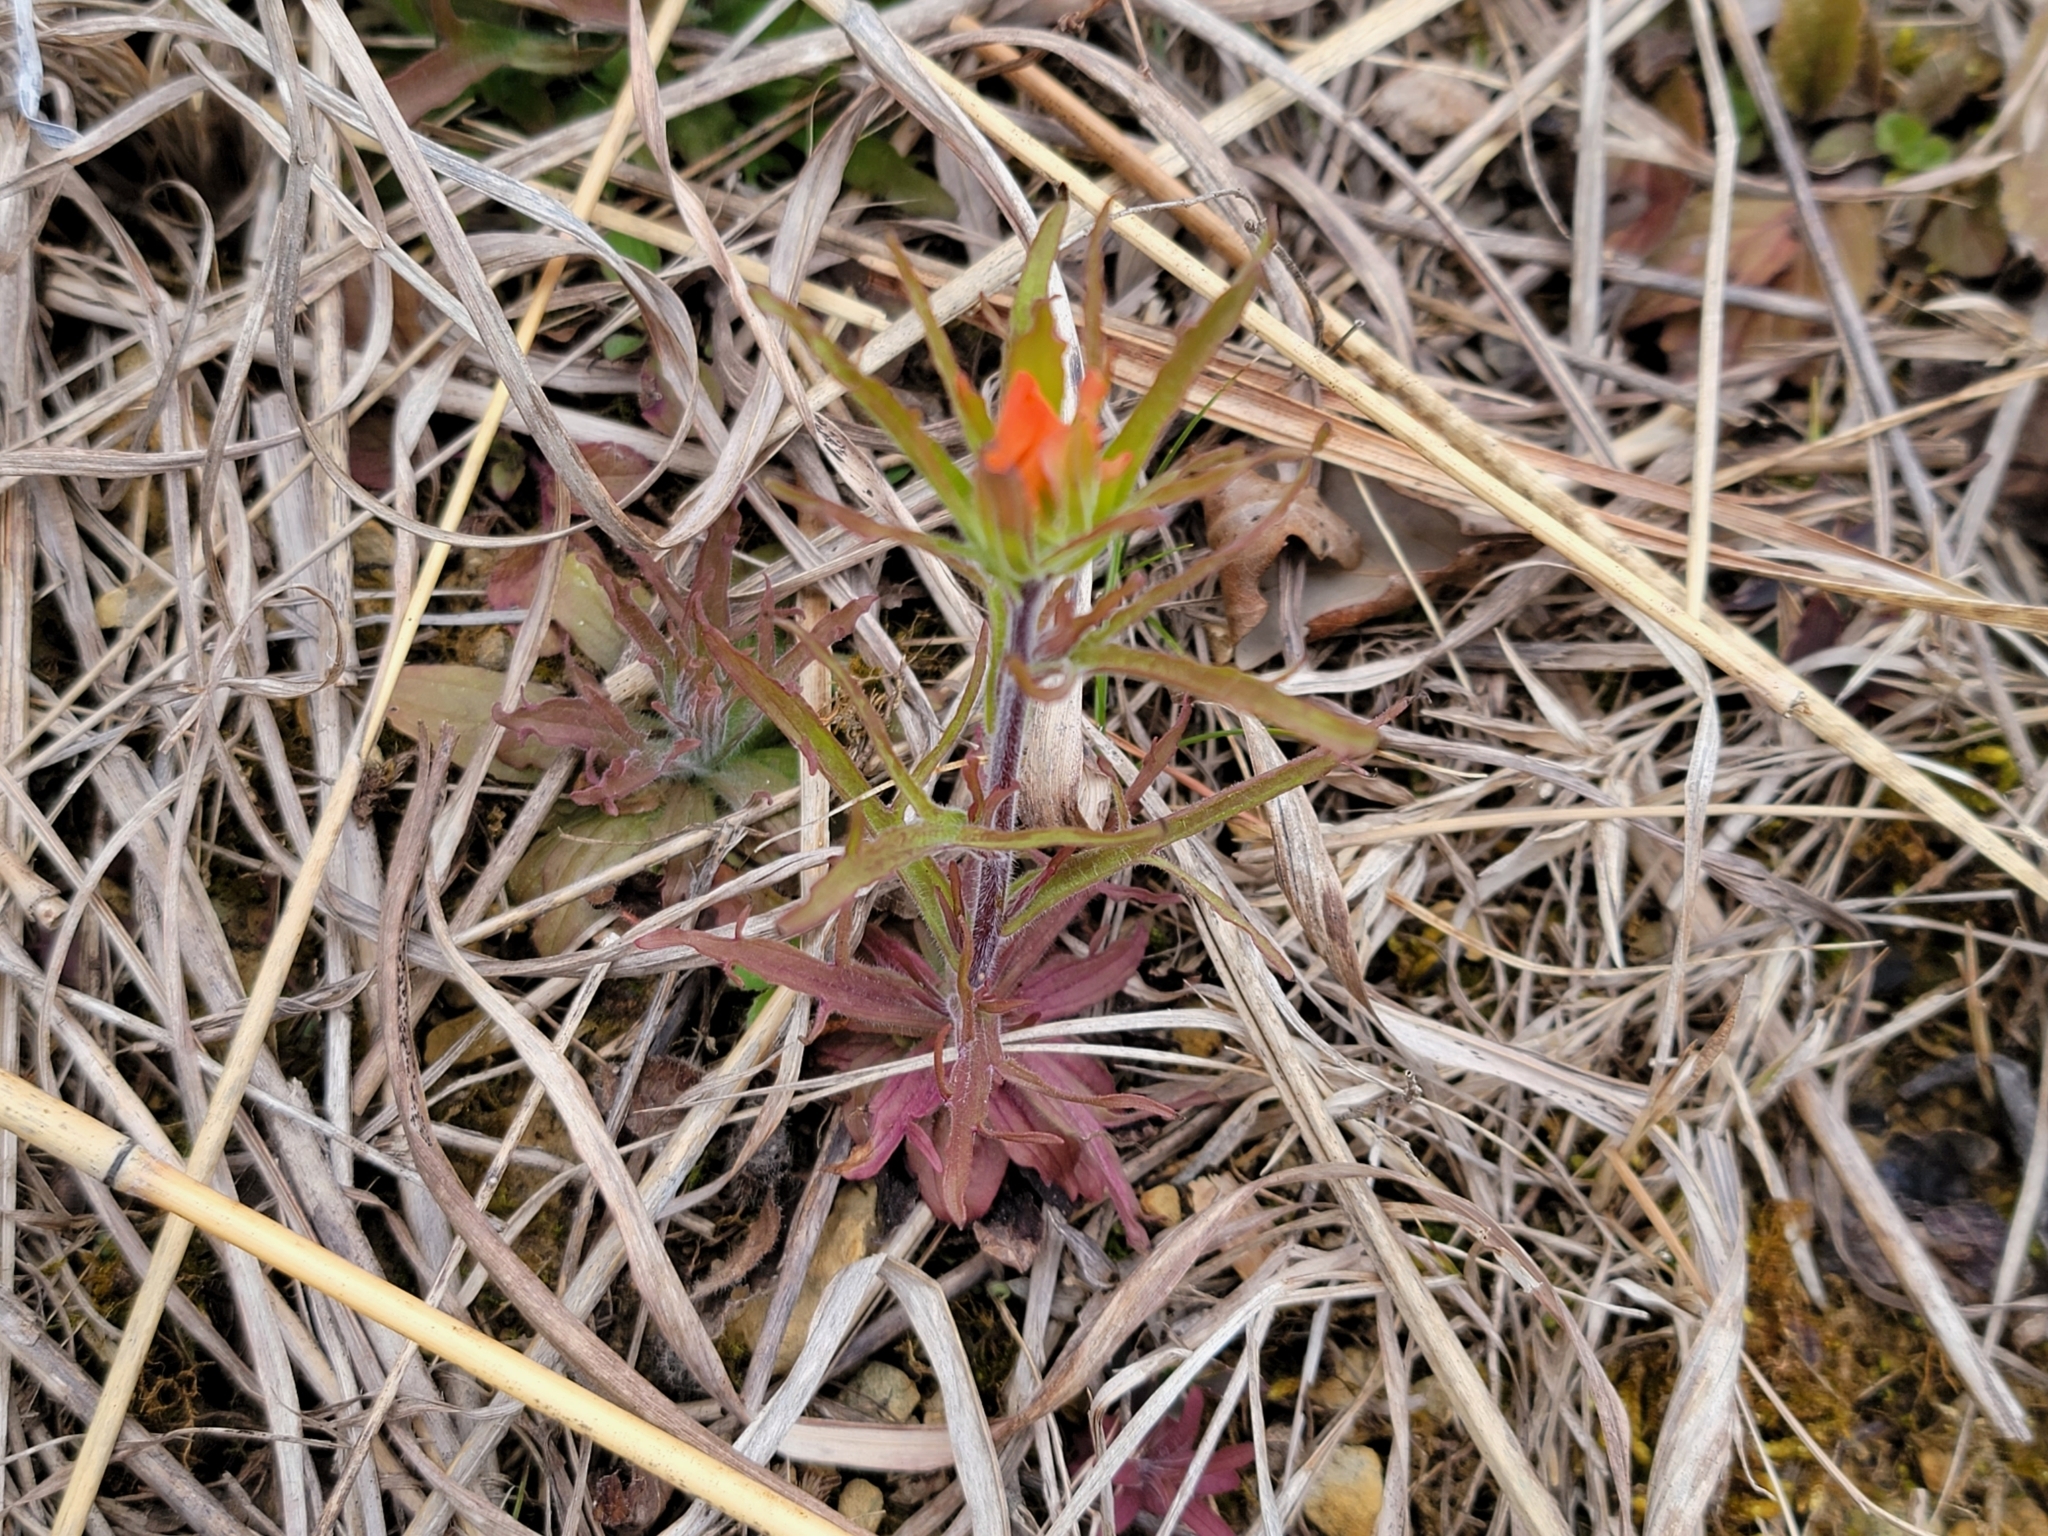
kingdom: Plantae
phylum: Tracheophyta
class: Magnoliopsida
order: Lamiales
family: Orobanchaceae
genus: Castilleja
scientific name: Castilleja coccinea
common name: Scarlet paintbrush
